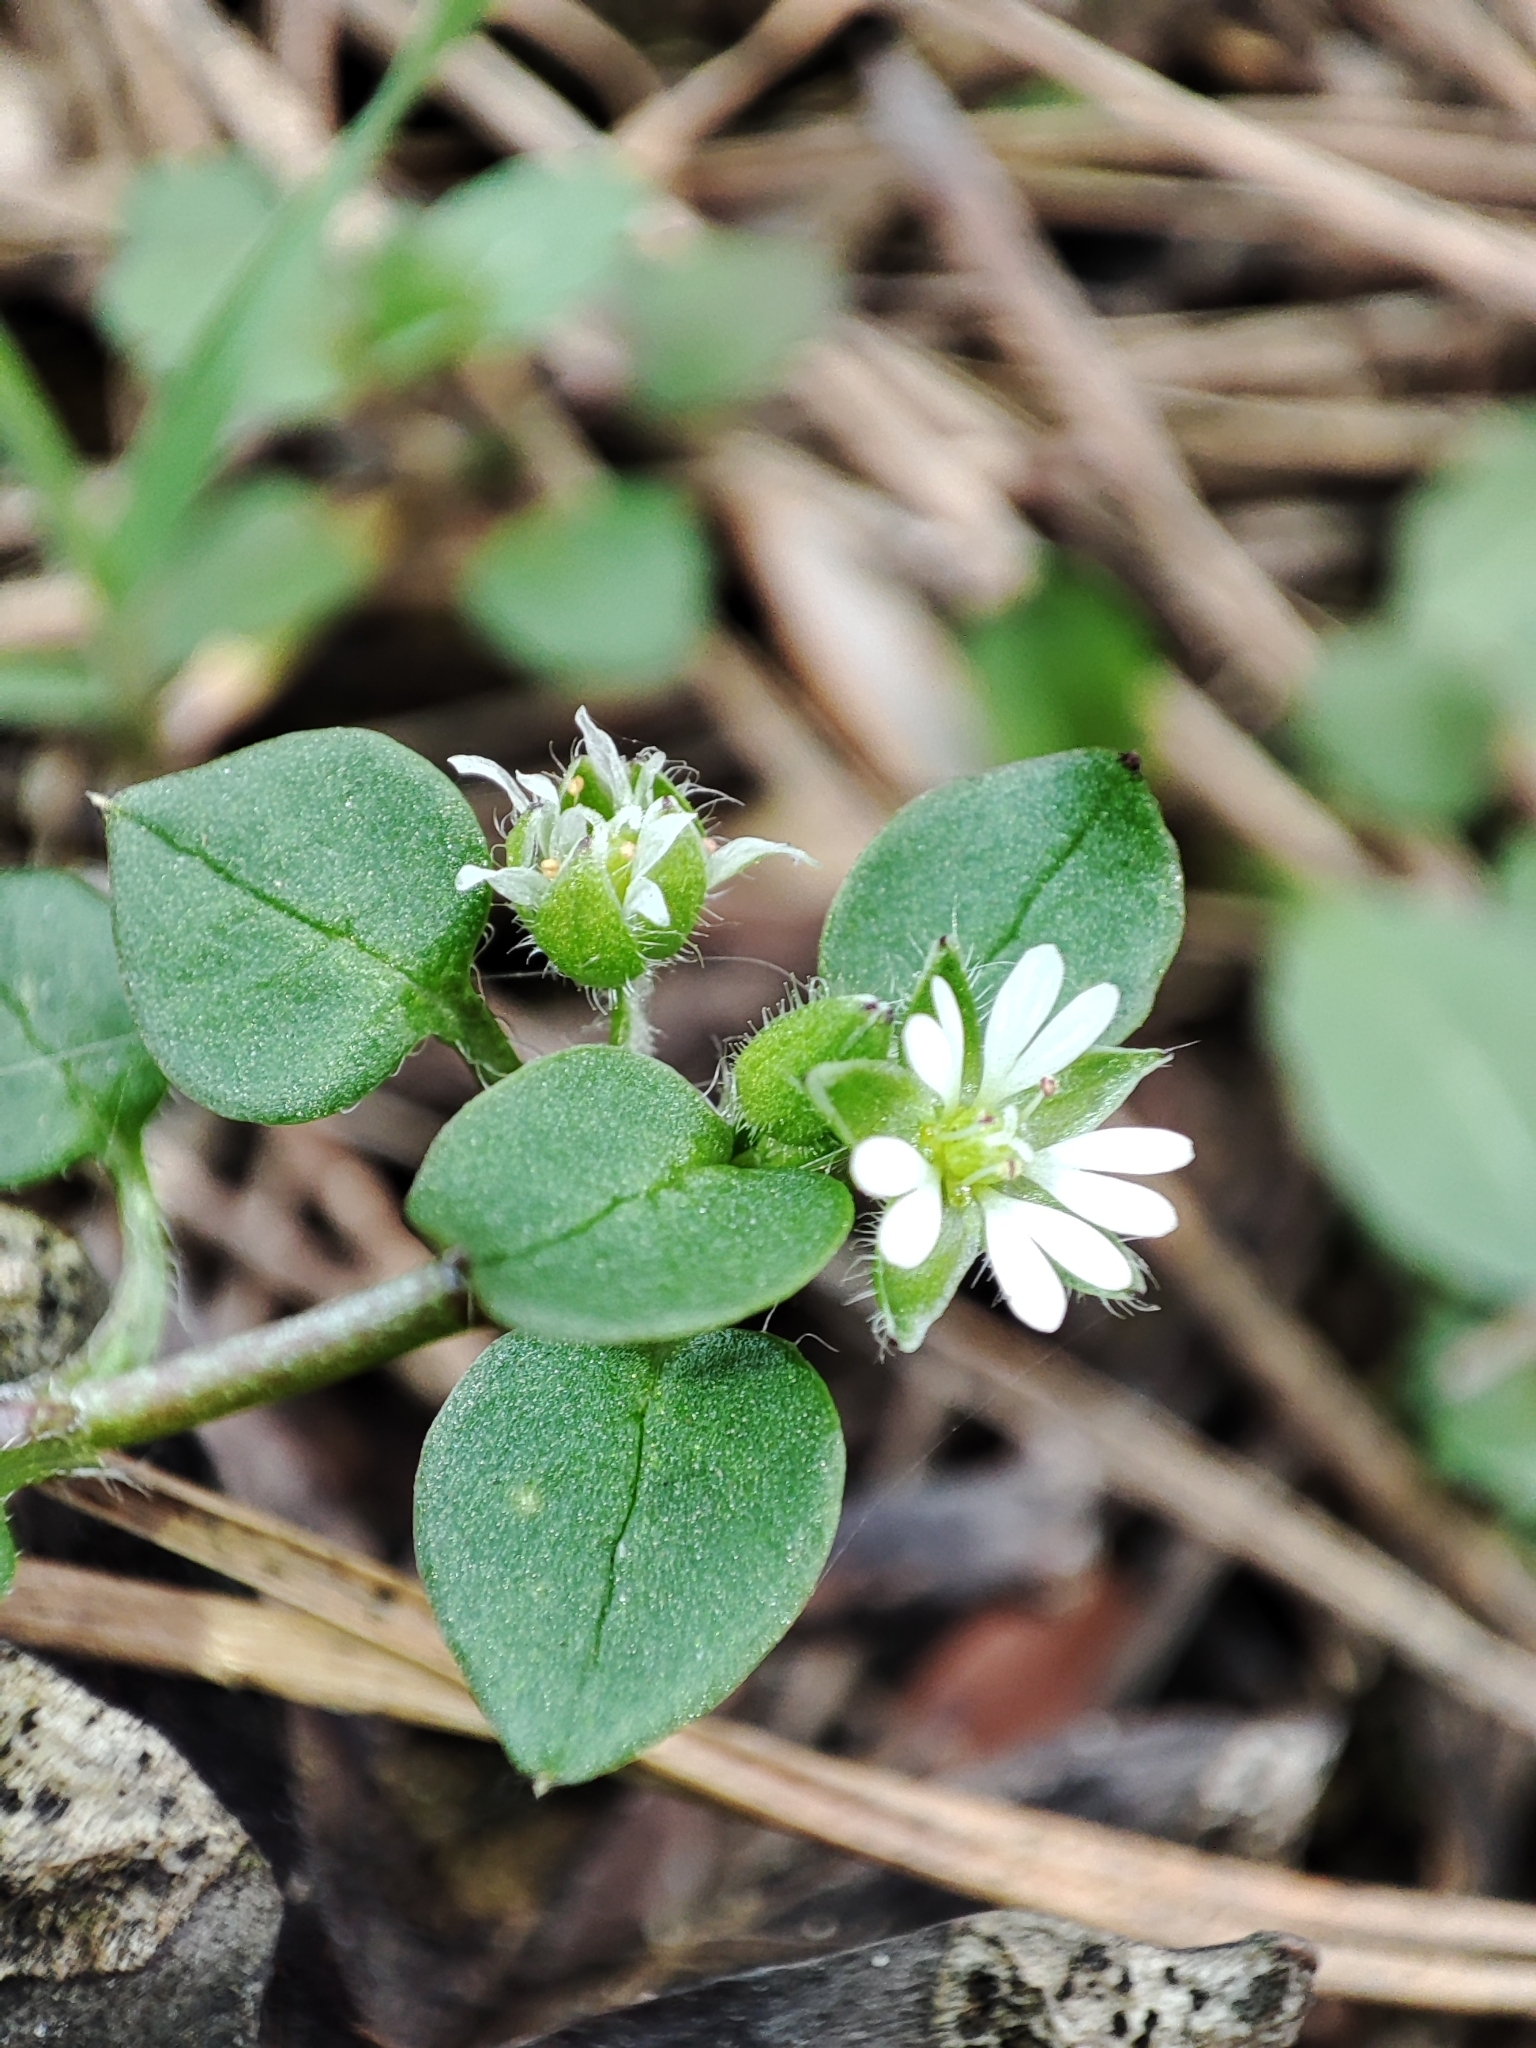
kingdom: Plantae
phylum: Tracheophyta
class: Magnoliopsida
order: Caryophyllales
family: Caryophyllaceae
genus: Stellaria
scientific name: Stellaria media
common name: Common chickweed
